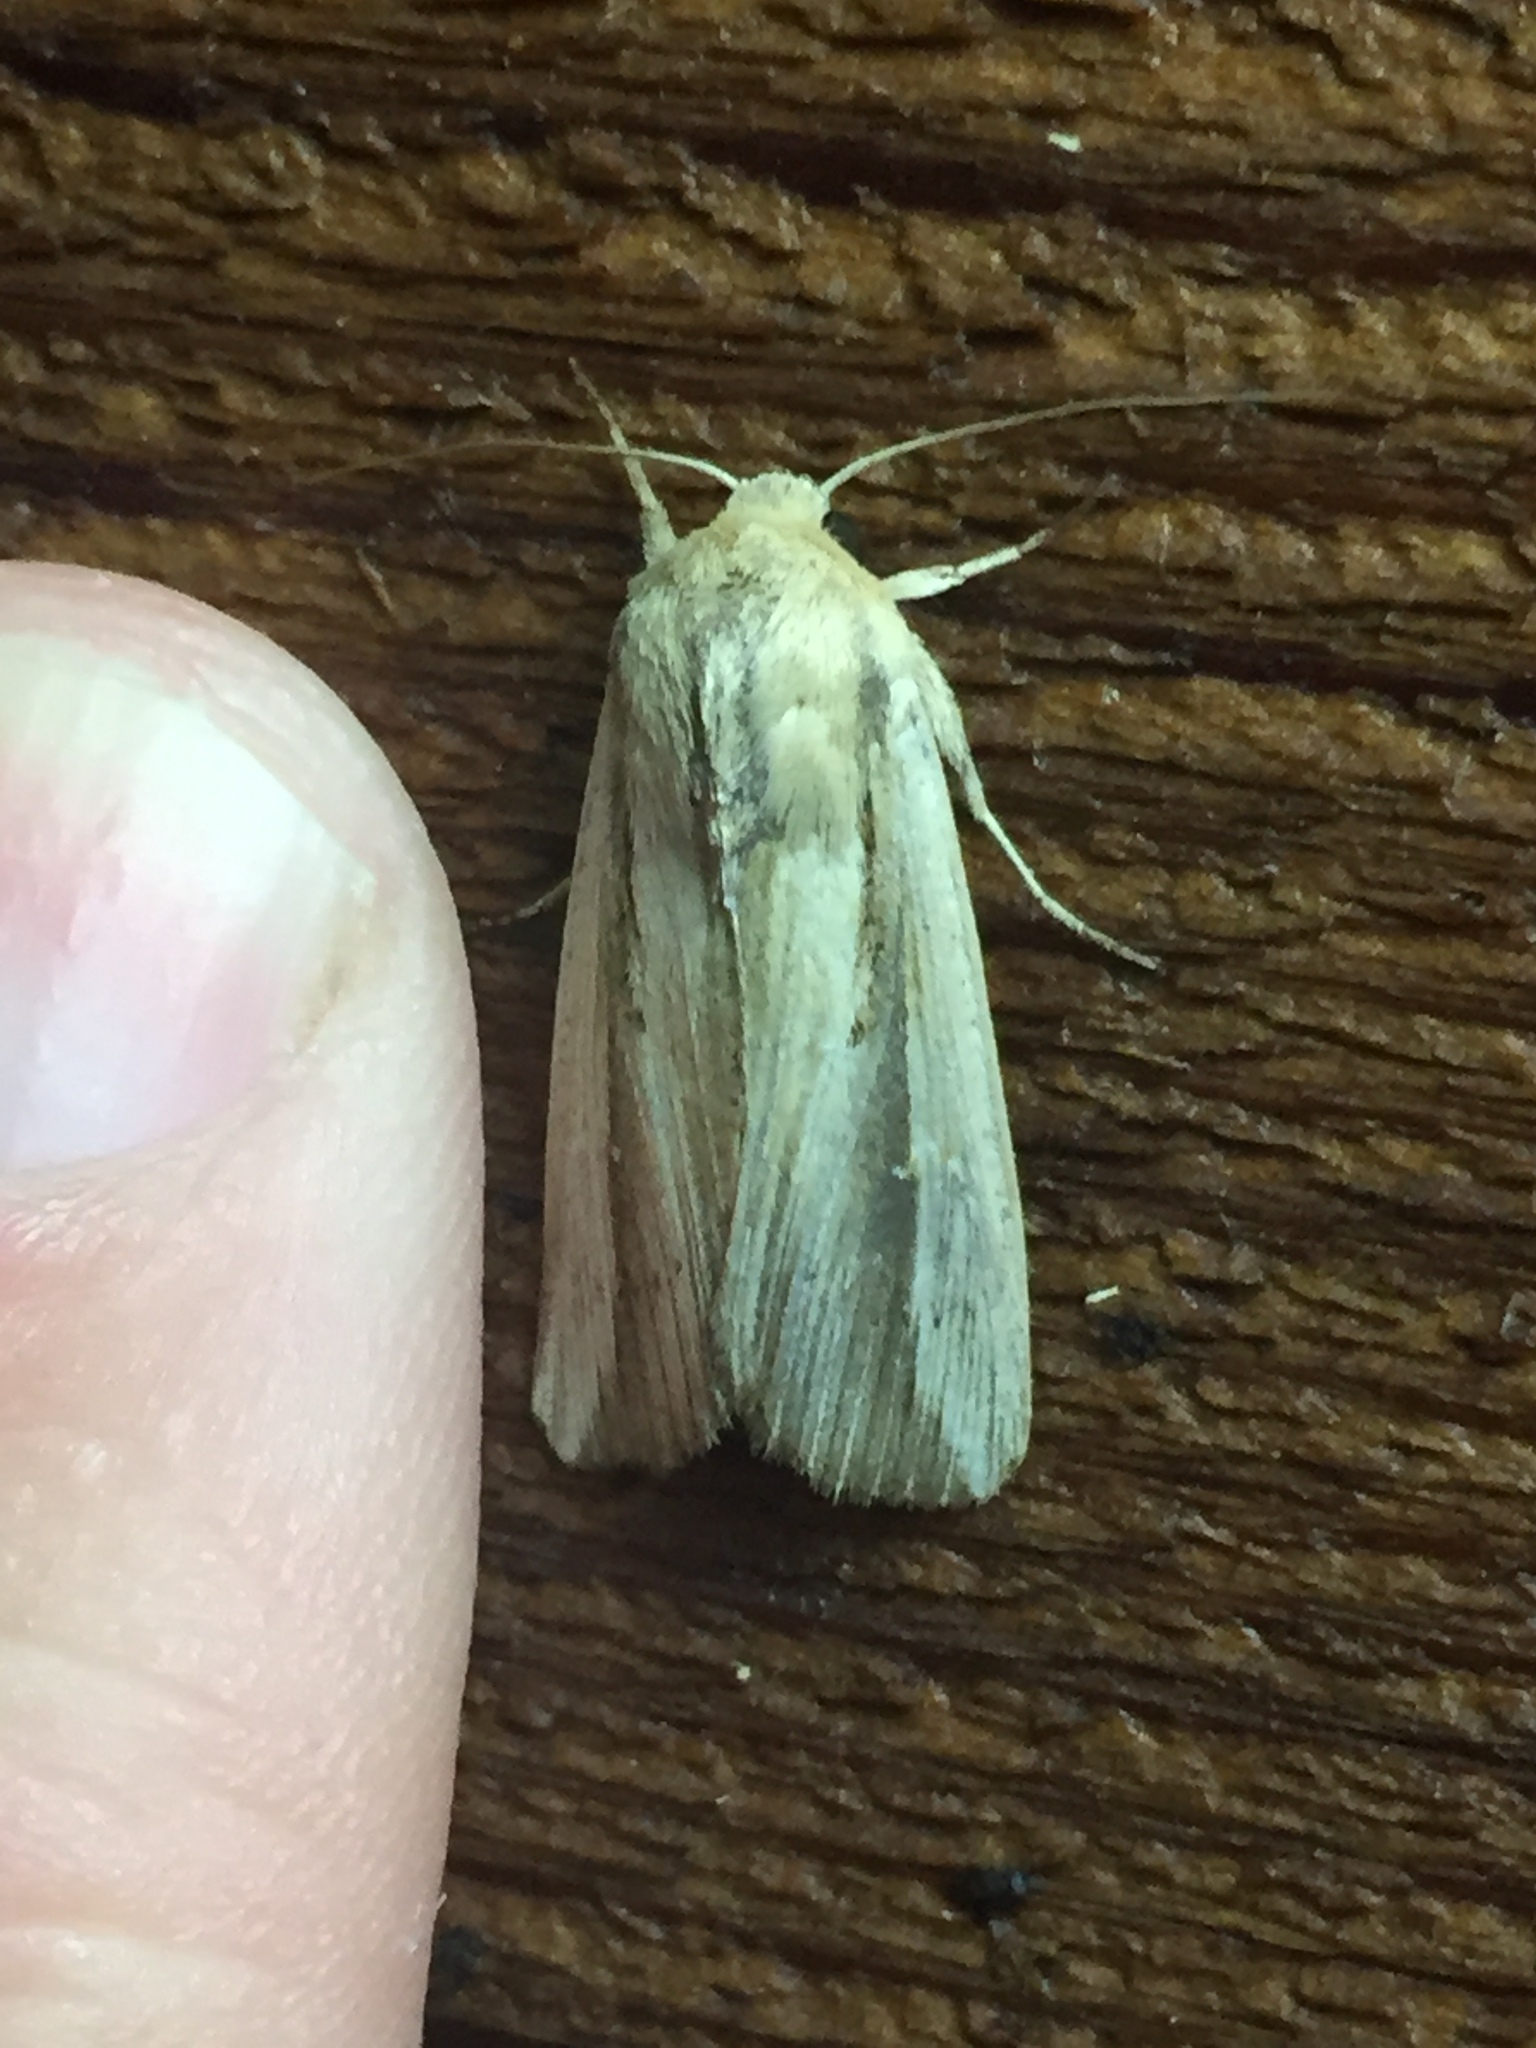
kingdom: Animalia
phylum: Arthropoda
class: Insecta
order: Lepidoptera
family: Noctuidae
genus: Leucania
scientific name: Leucania stenographa
